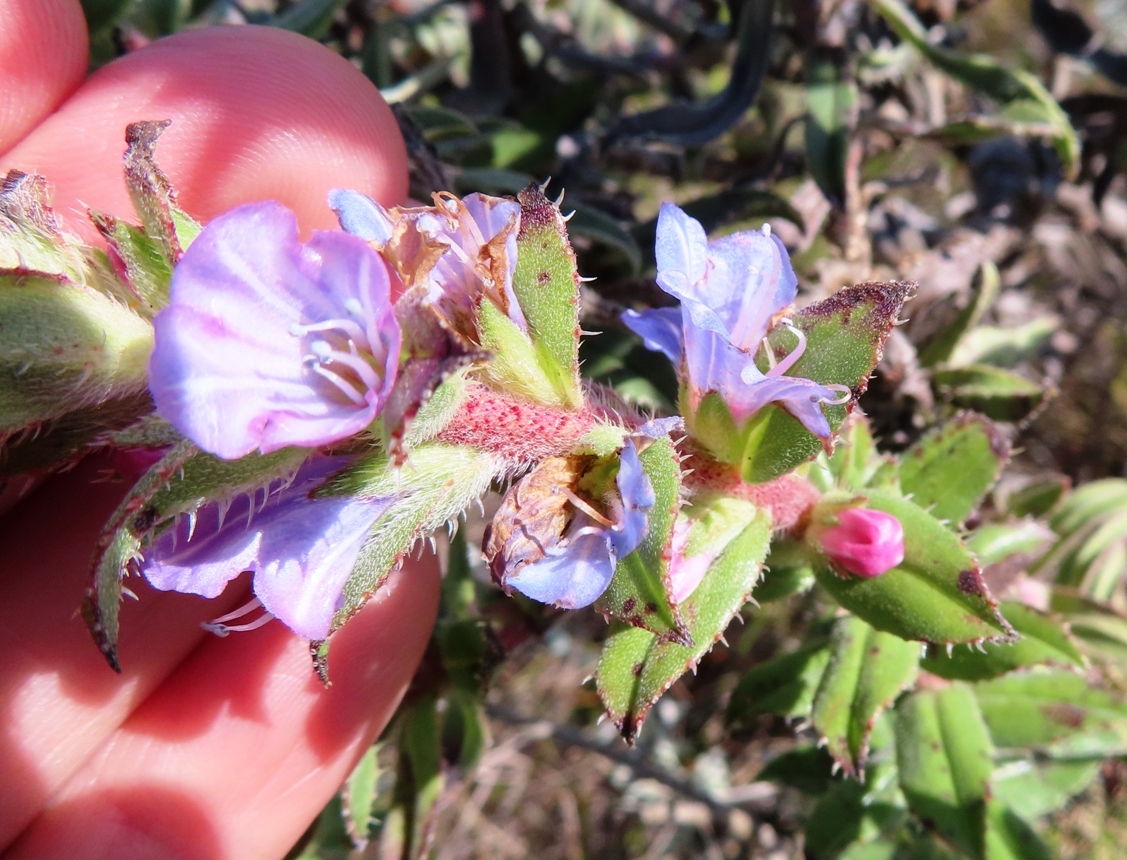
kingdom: Plantae
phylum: Tracheophyta
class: Magnoliopsida
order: Boraginales
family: Boraginaceae
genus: Lobostemon
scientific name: Lobostemon argenteus
